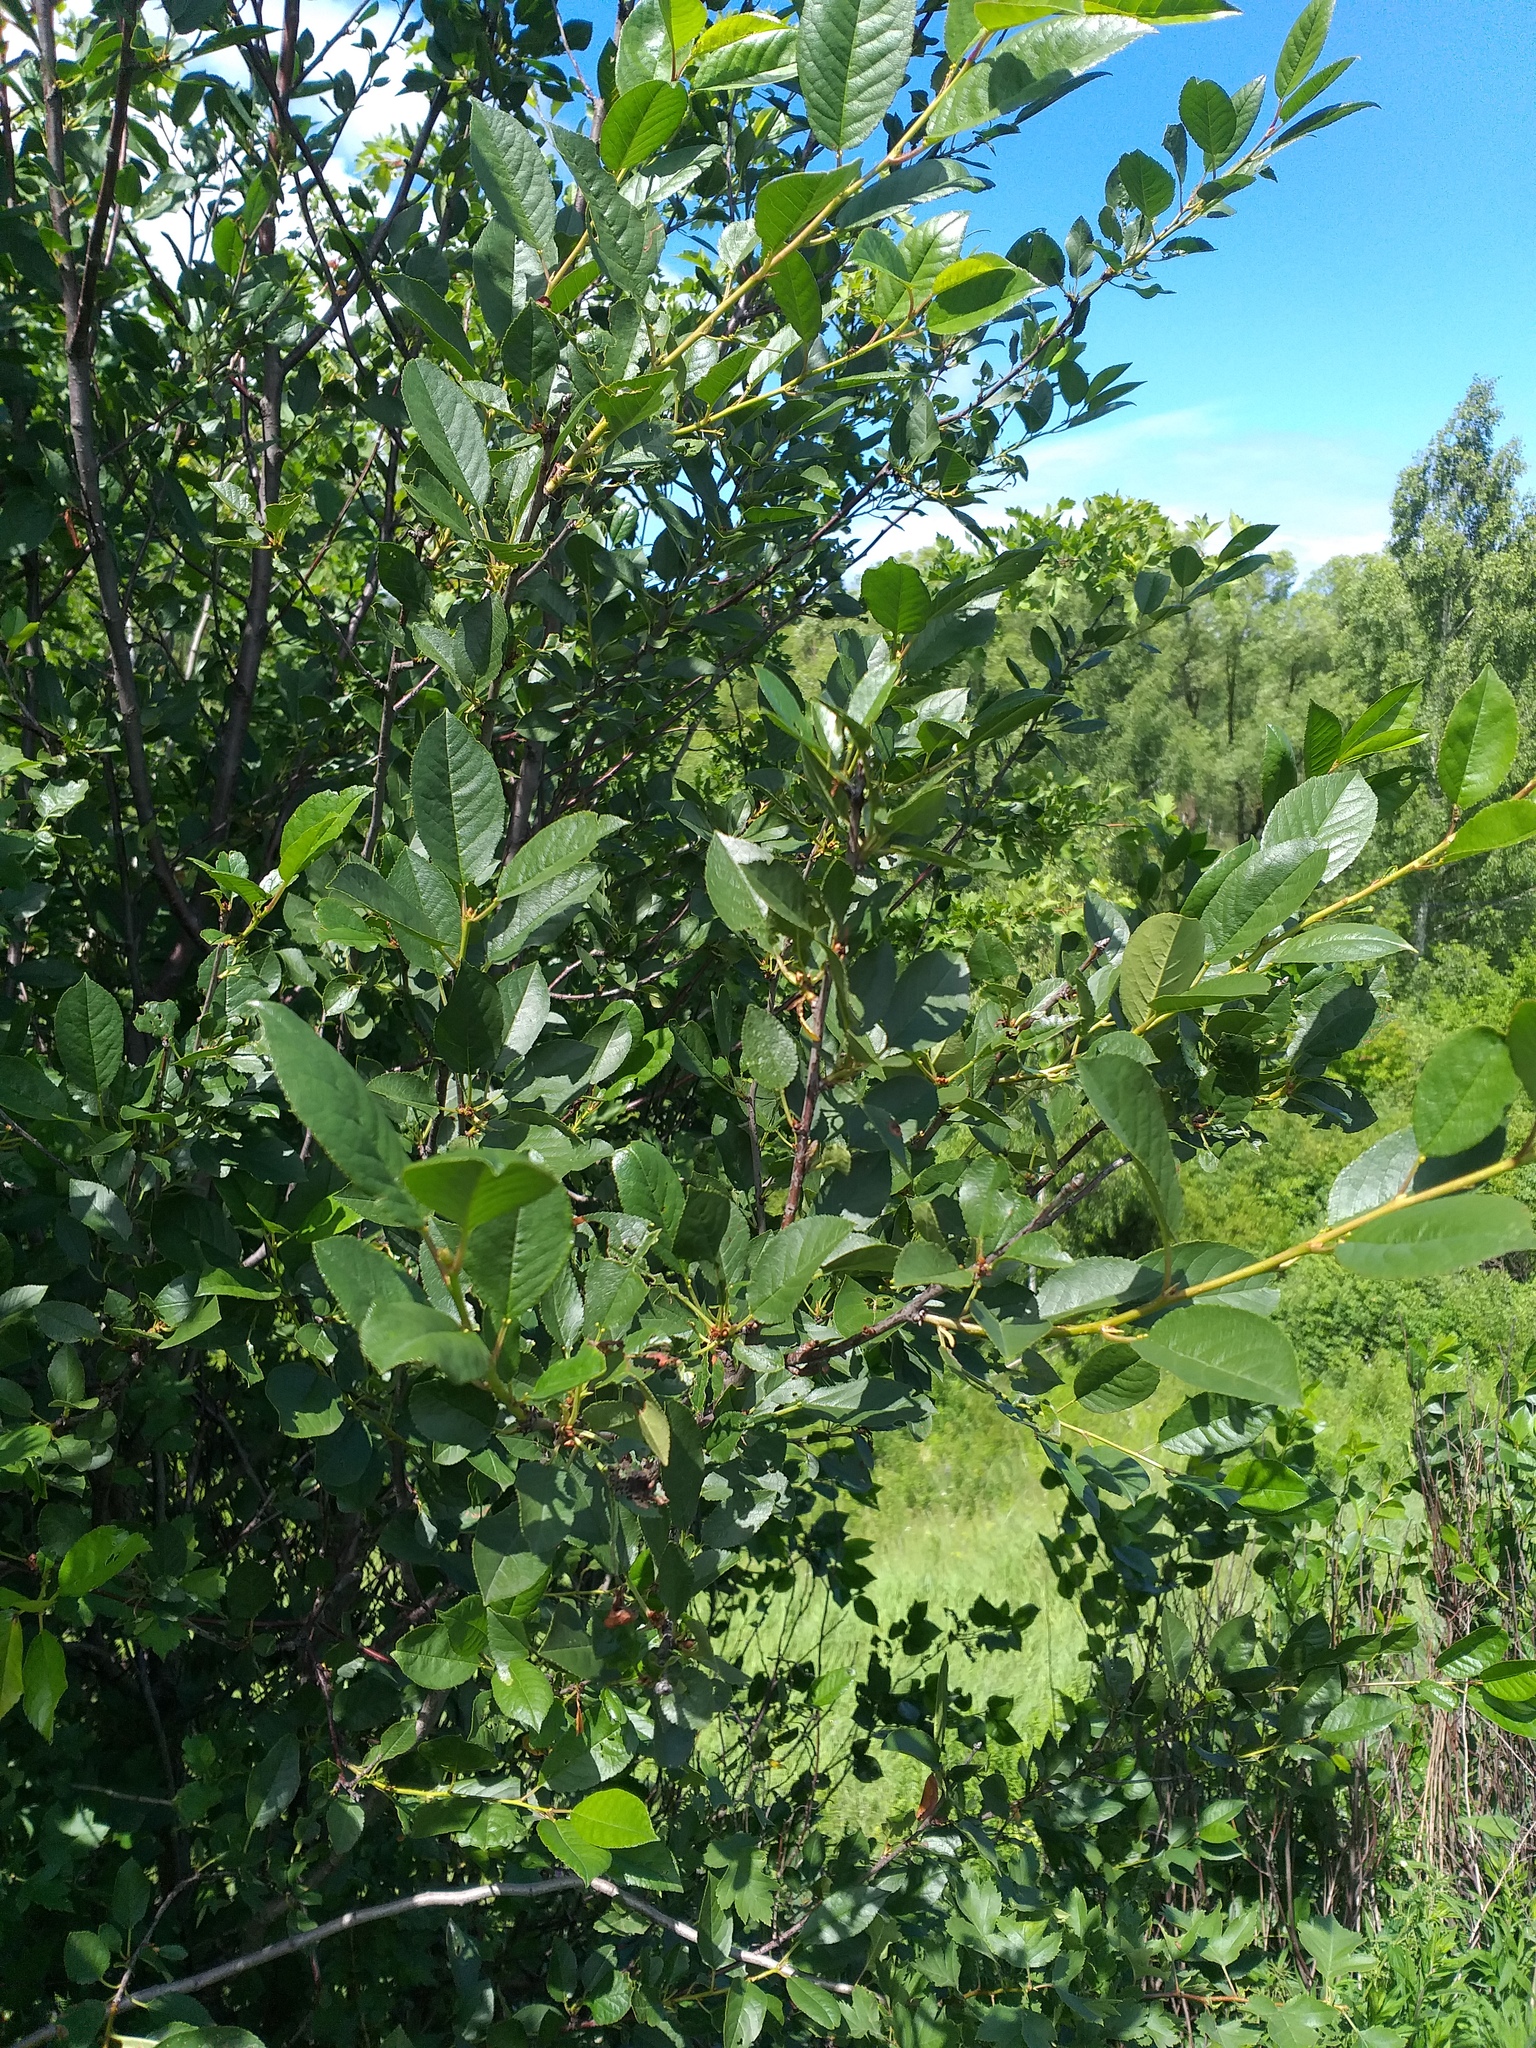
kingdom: Plantae
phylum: Tracheophyta
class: Magnoliopsida
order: Rosales
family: Rosaceae
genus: Prunus
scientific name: Prunus cerasus
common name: Morello cherry
